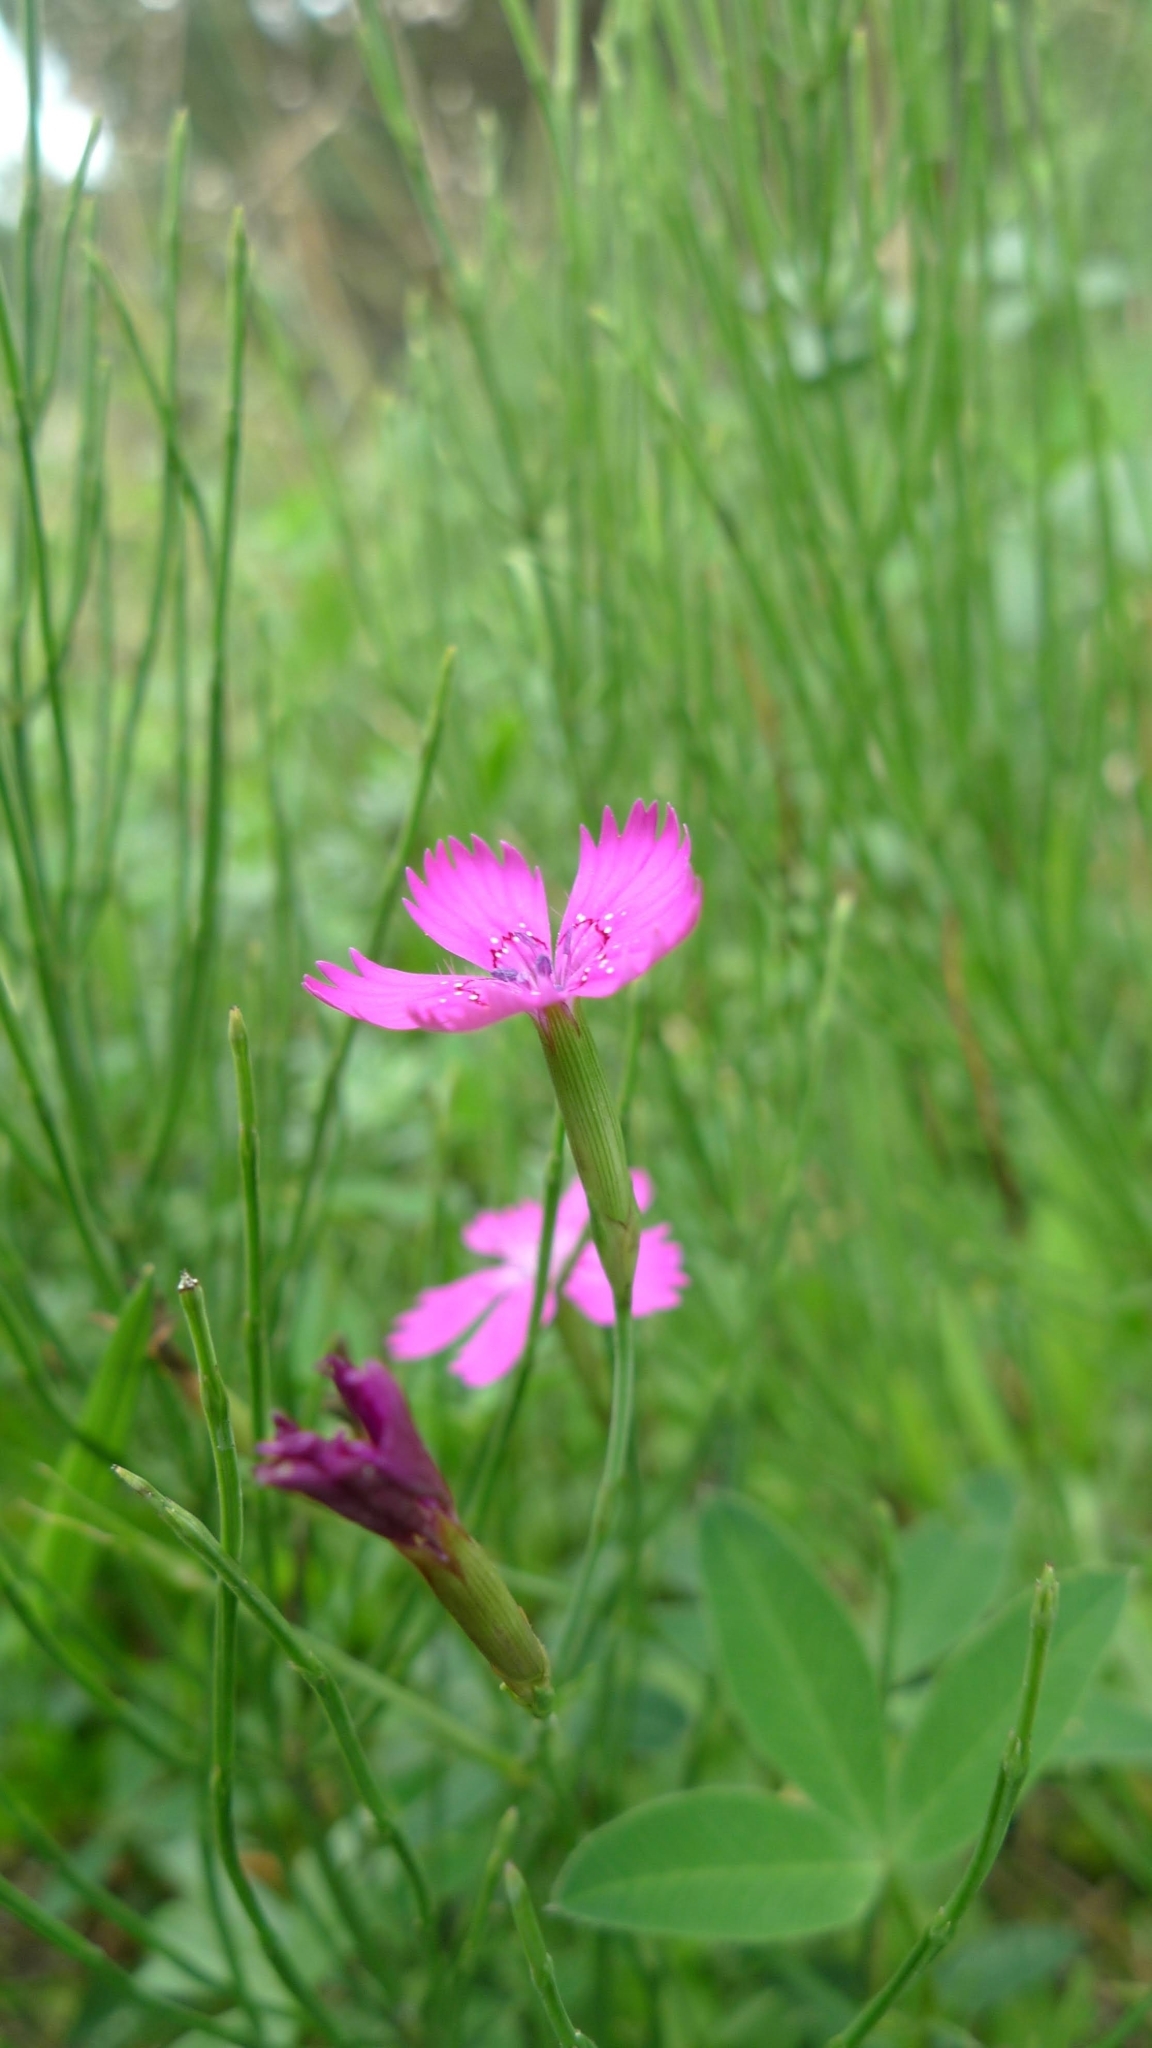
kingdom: Plantae
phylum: Tracheophyta
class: Magnoliopsida
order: Caryophyllales
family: Caryophyllaceae
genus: Dianthus
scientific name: Dianthus deltoides
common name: Maiden pink
